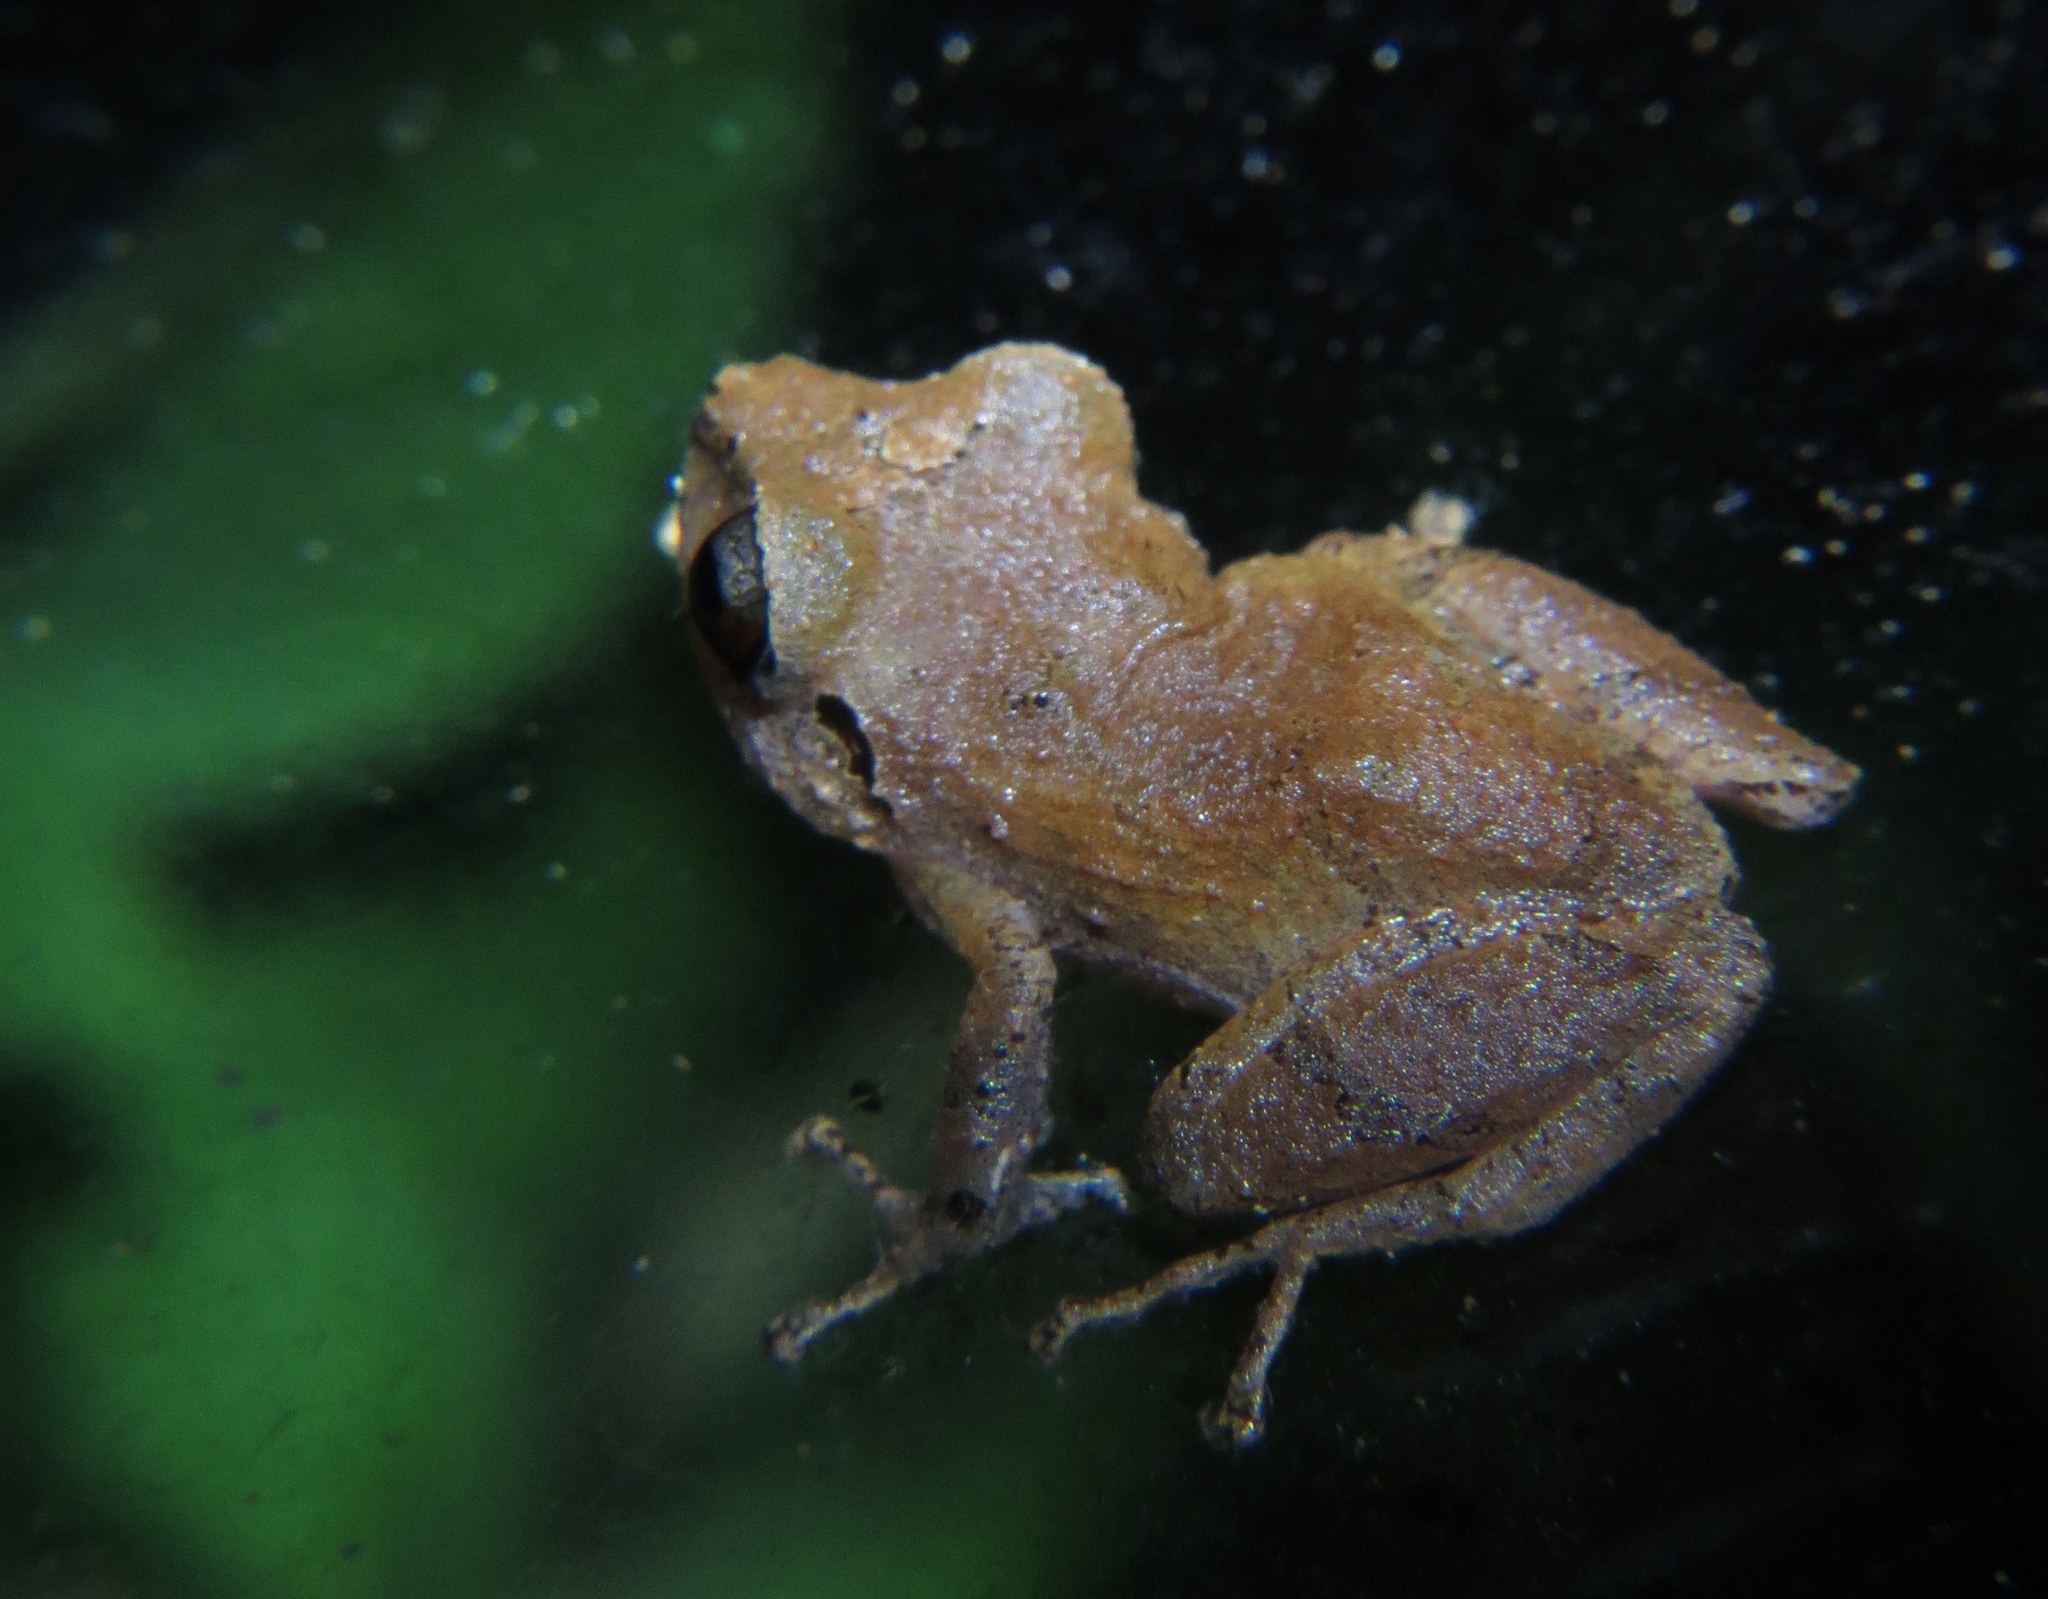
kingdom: Animalia
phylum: Chordata
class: Amphibia
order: Anura
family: Craugastoridae
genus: Pristimantis
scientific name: Pristimantis ridens
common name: Rio san juan robber frog
